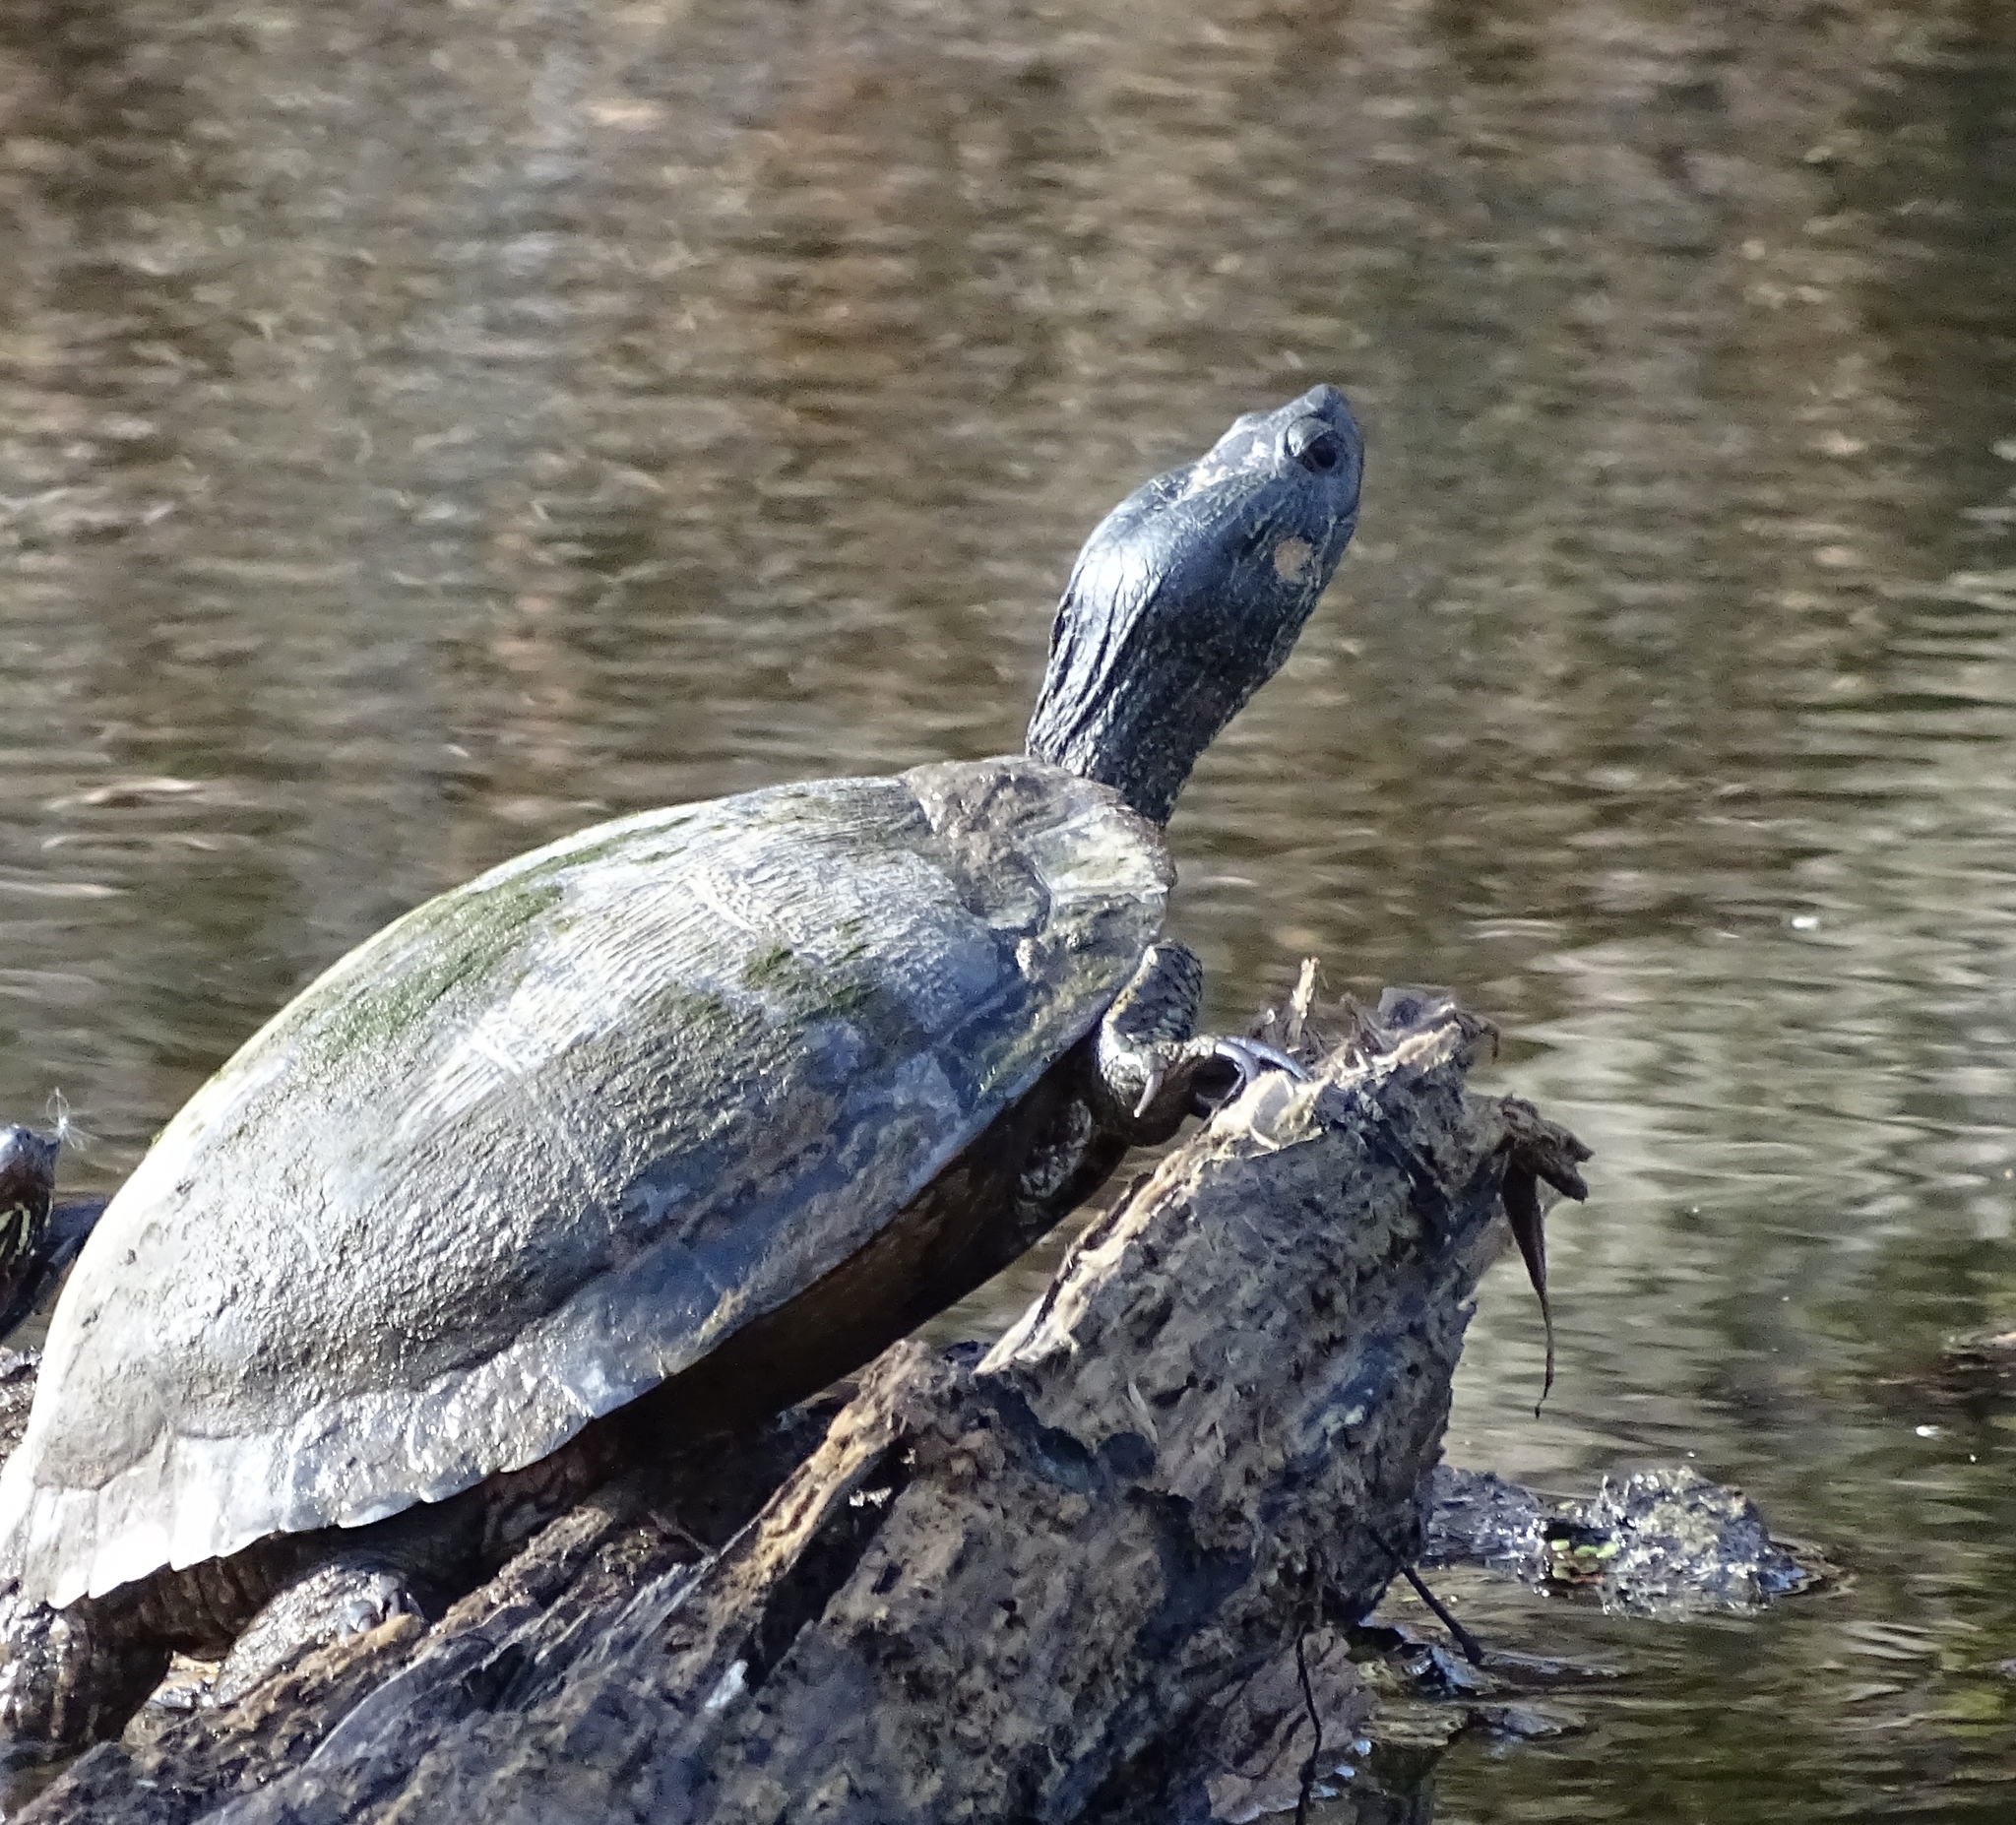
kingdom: Animalia
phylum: Chordata
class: Testudines
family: Emydidae
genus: Trachemys
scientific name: Trachemys scripta
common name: Slider
